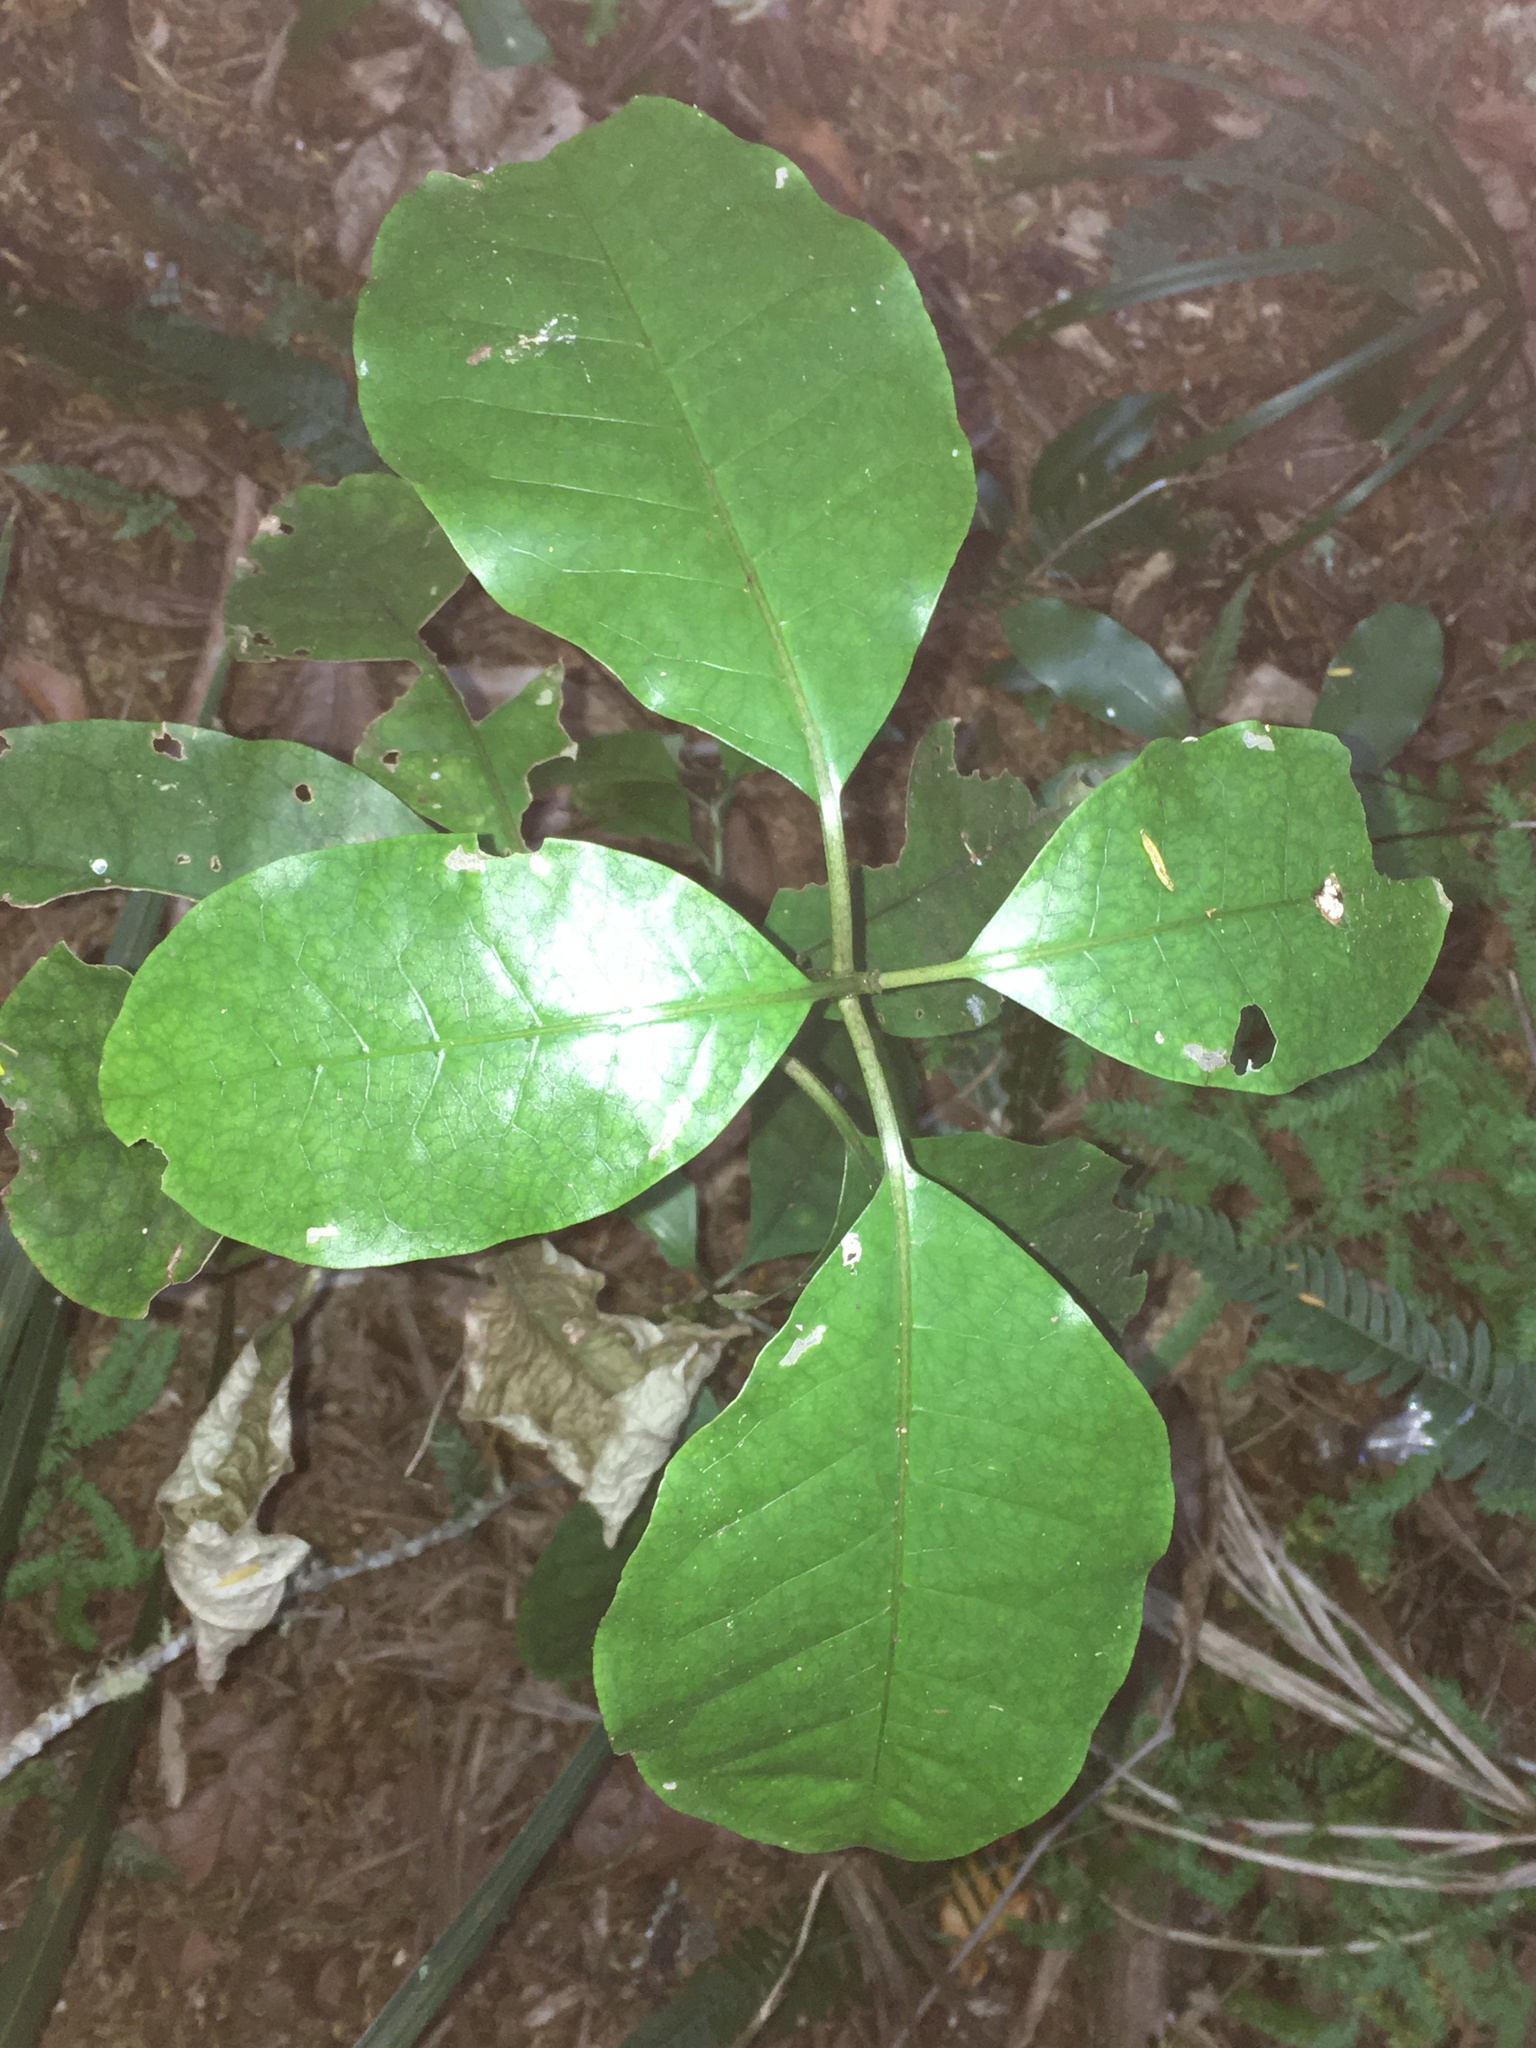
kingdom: Plantae
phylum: Tracheophyta
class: Magnoliopsida
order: Gentianales
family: Rubiaceae
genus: Coprosma
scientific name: Coprosma autumnalis
